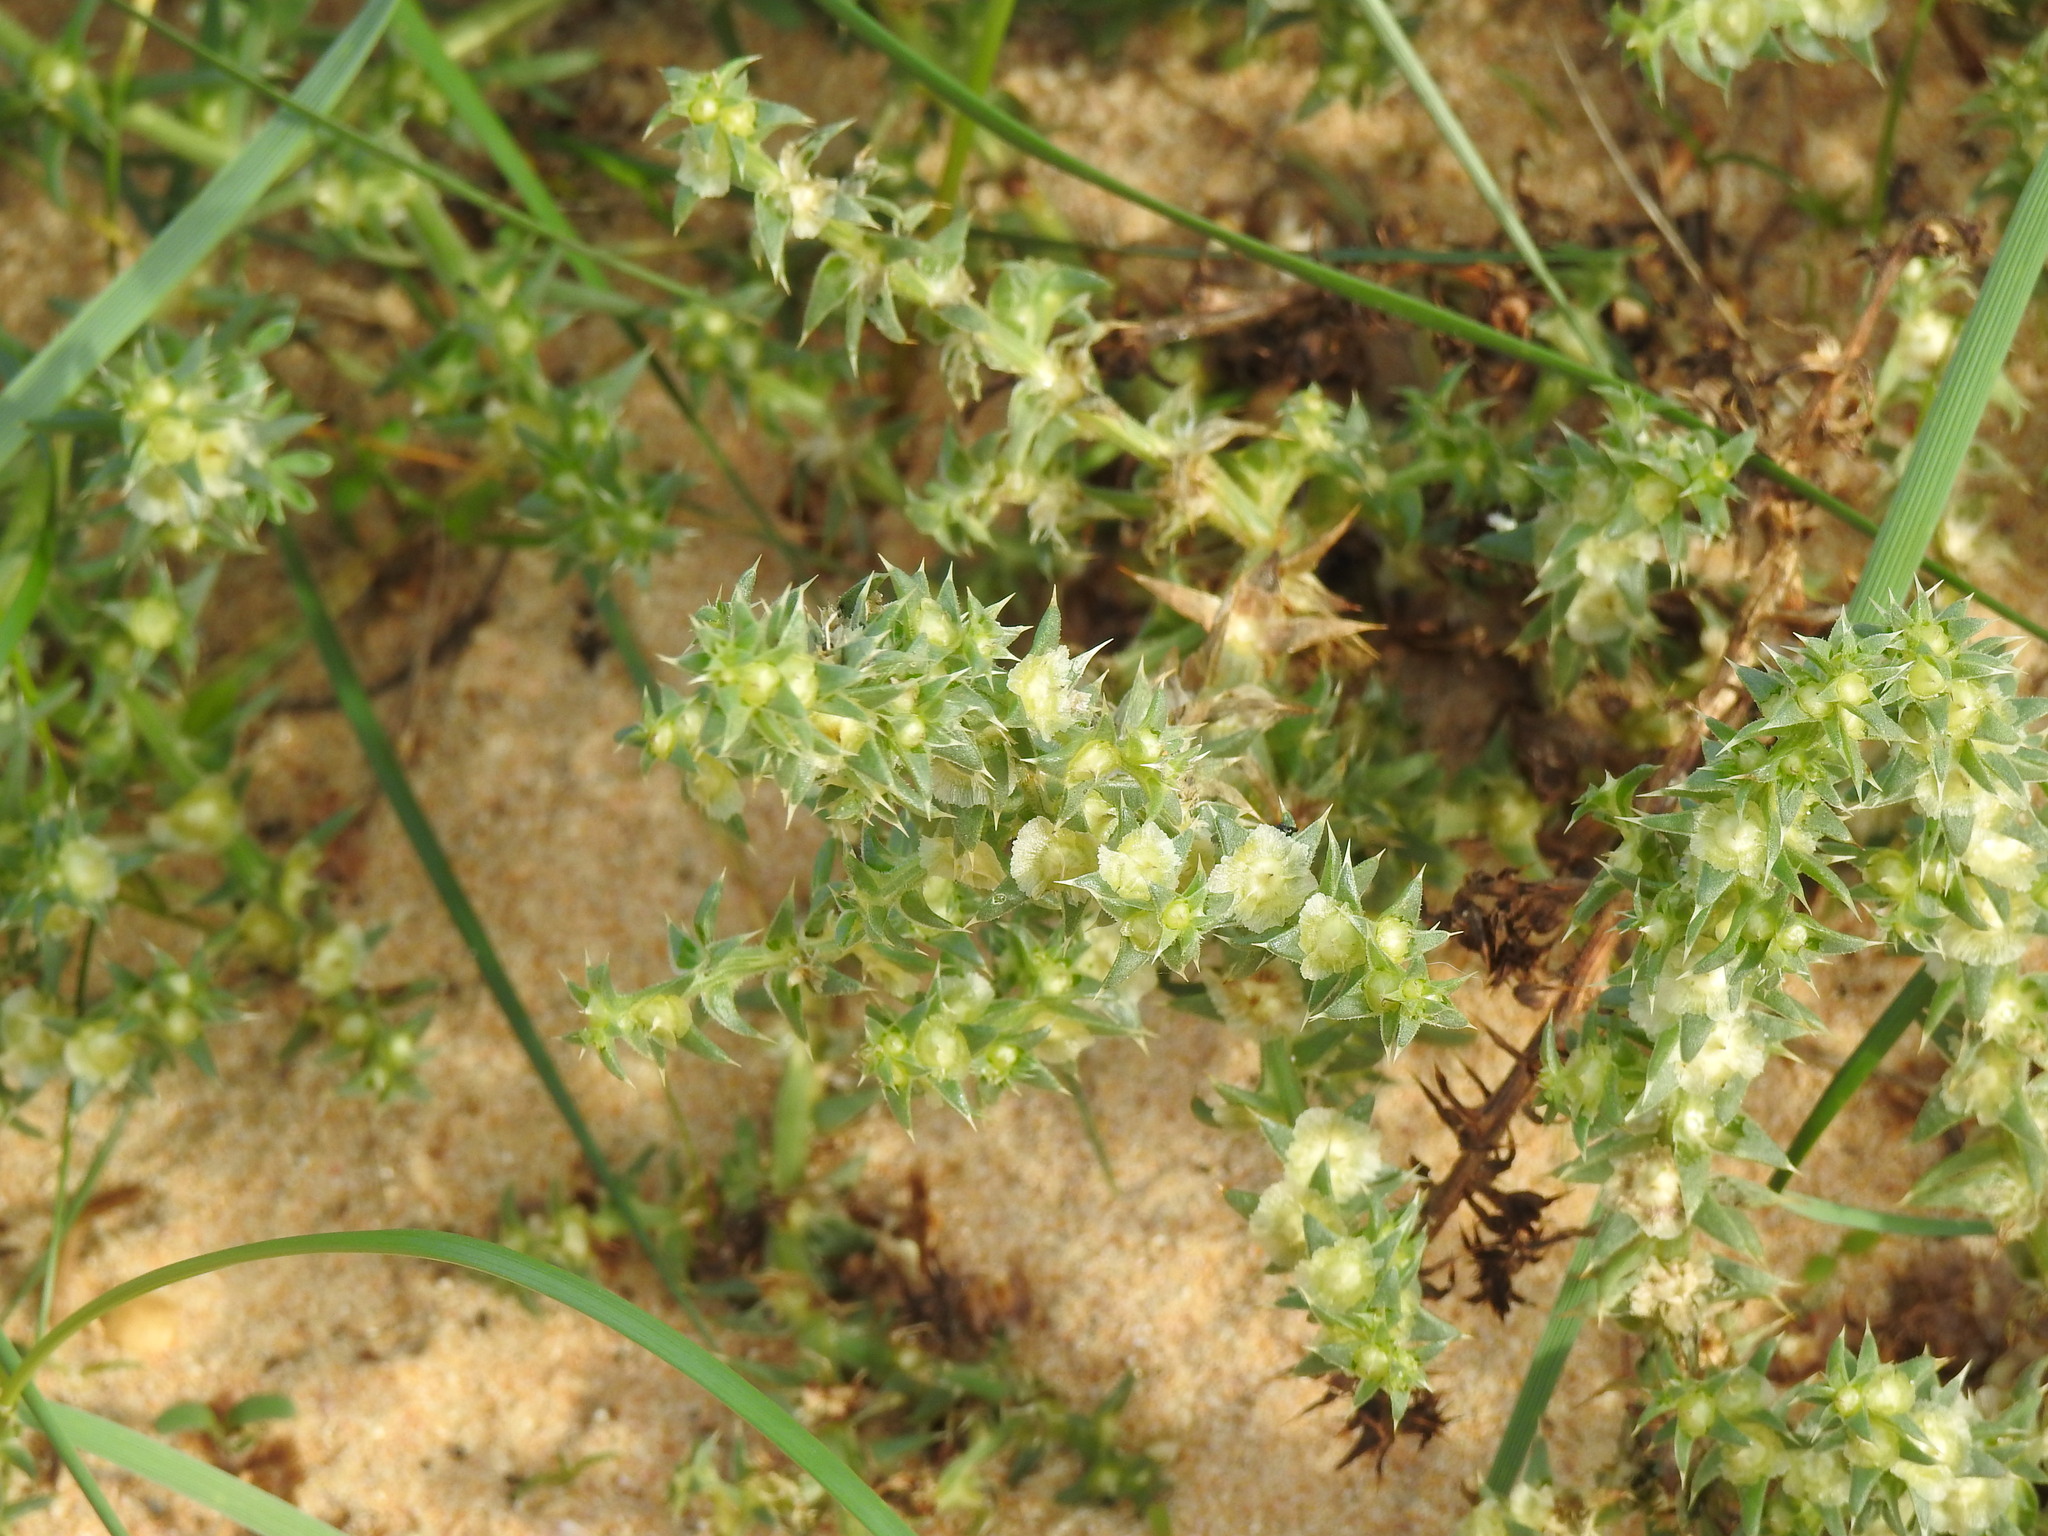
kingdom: Plantae
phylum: Tracheophyta
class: Magnoliopsida
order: Caryophyllales
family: Amaranthaceae
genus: Salsola
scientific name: Salsola kali
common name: Saltwort
